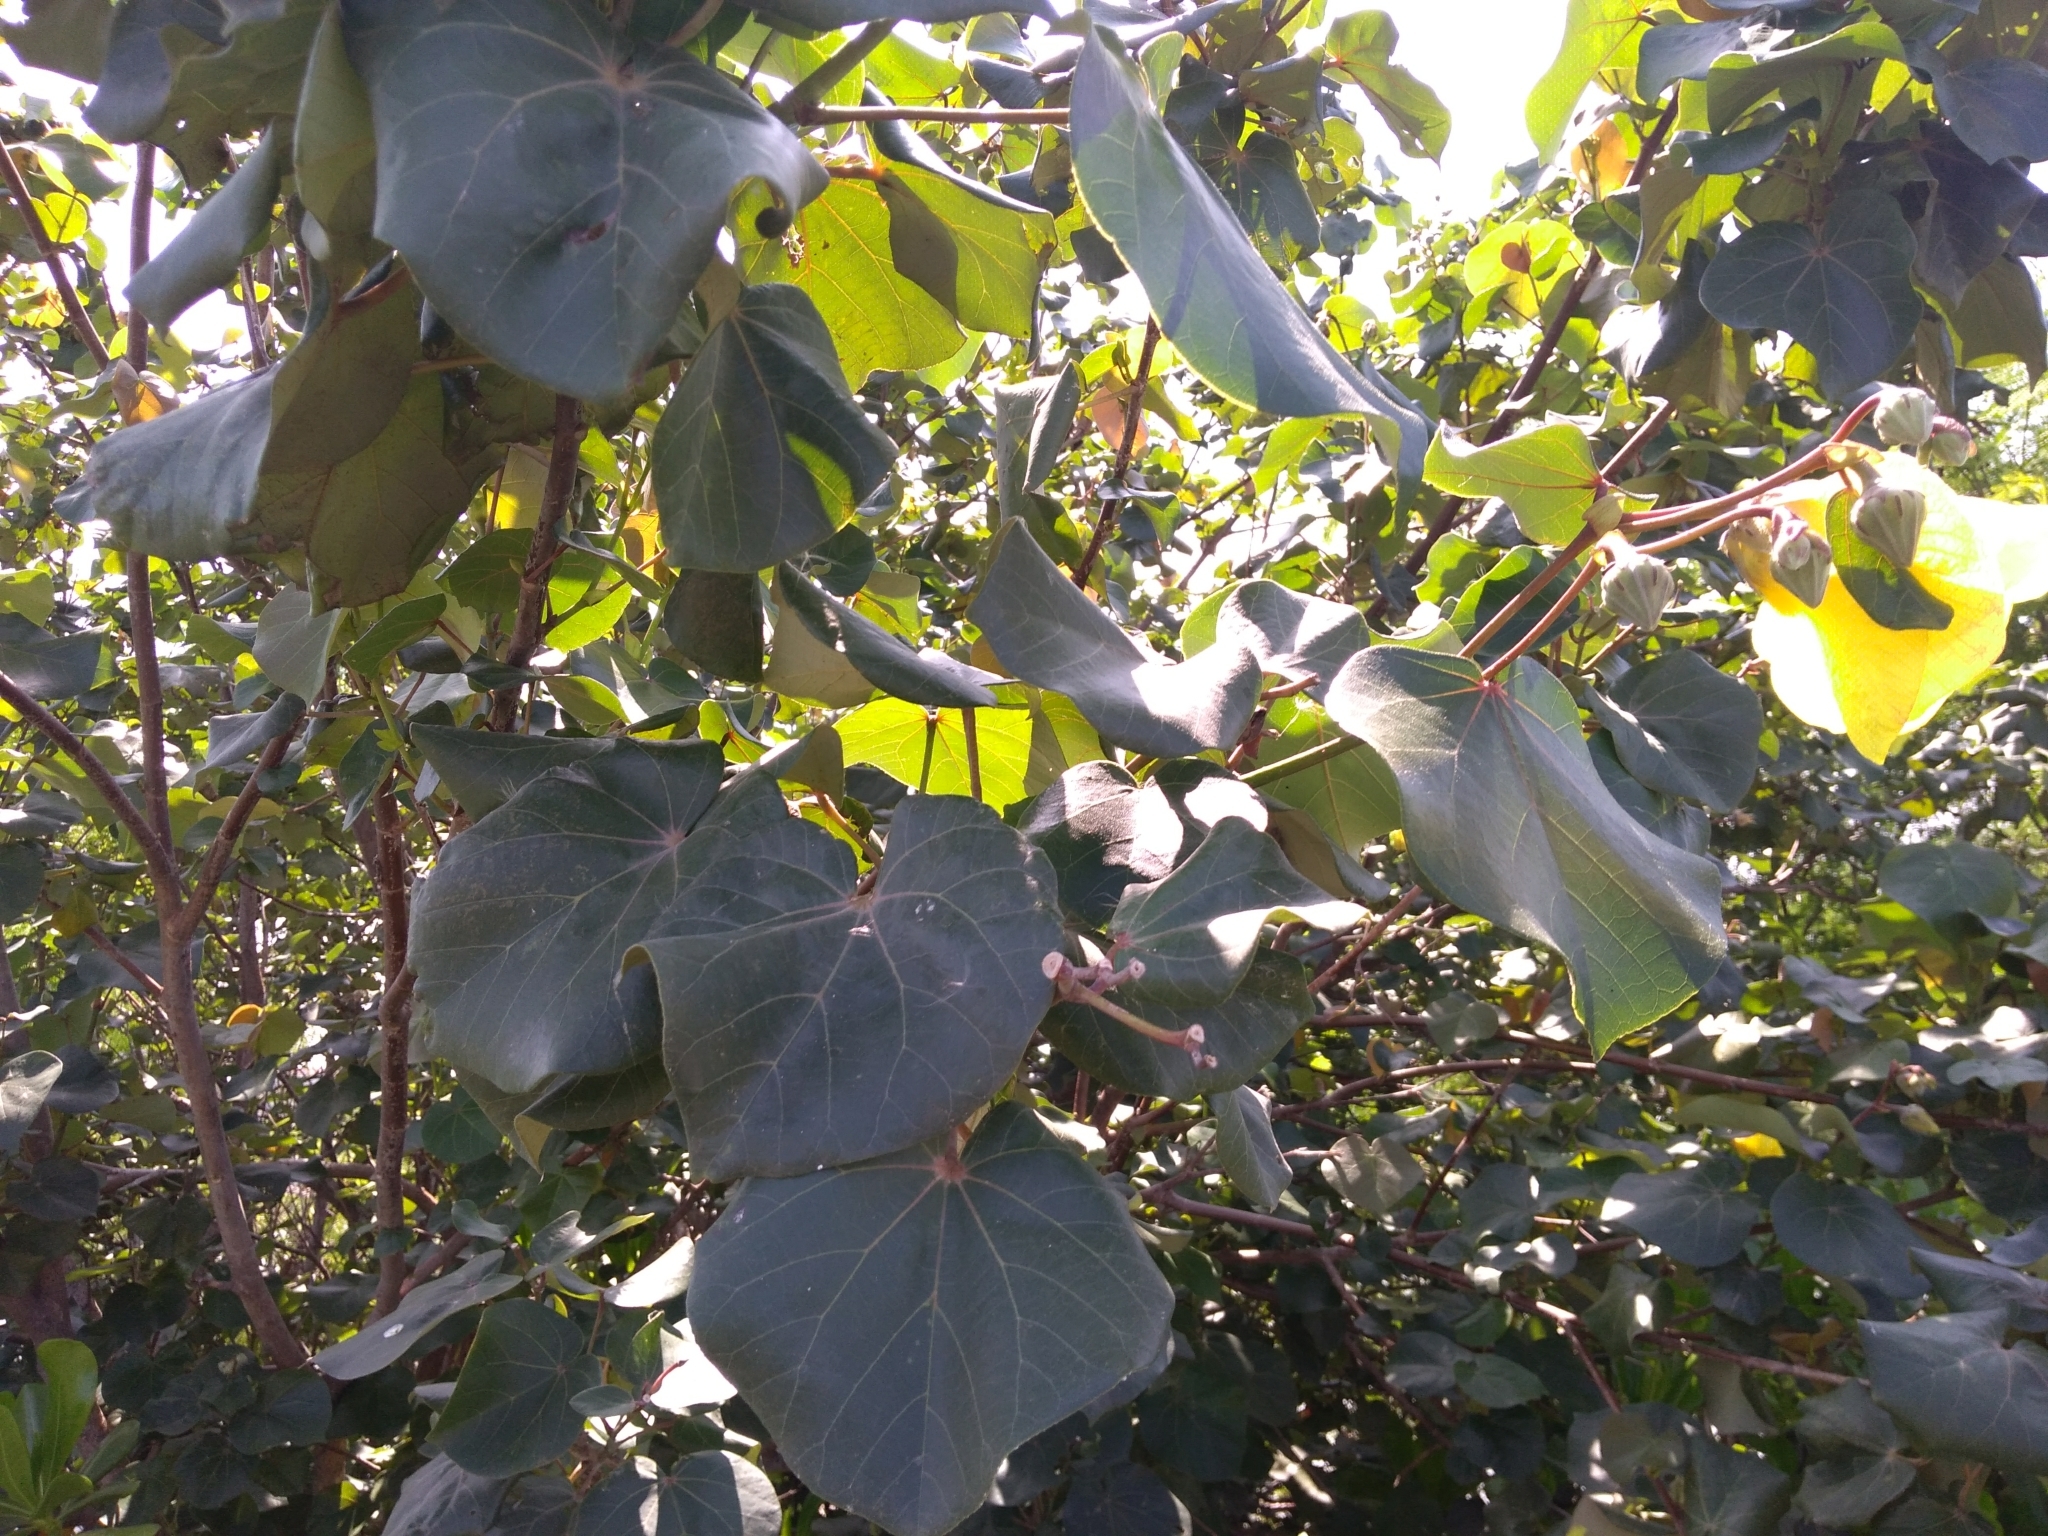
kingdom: Plantae
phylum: Tracheophyta
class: Magnoliopsida
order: Malvales
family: Malvaceae
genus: Talipariti
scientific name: Talipariti tiliaceum
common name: Sea hibiscus
